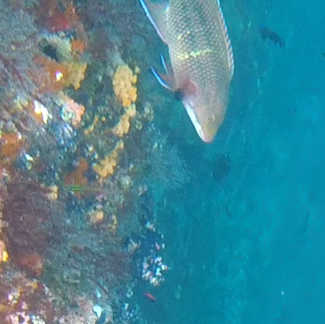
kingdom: Animalia
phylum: Chordata
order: Perciformes
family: Labridae
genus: Bodianus
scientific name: Bodianus diplotaenia
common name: Mexican hogfish
